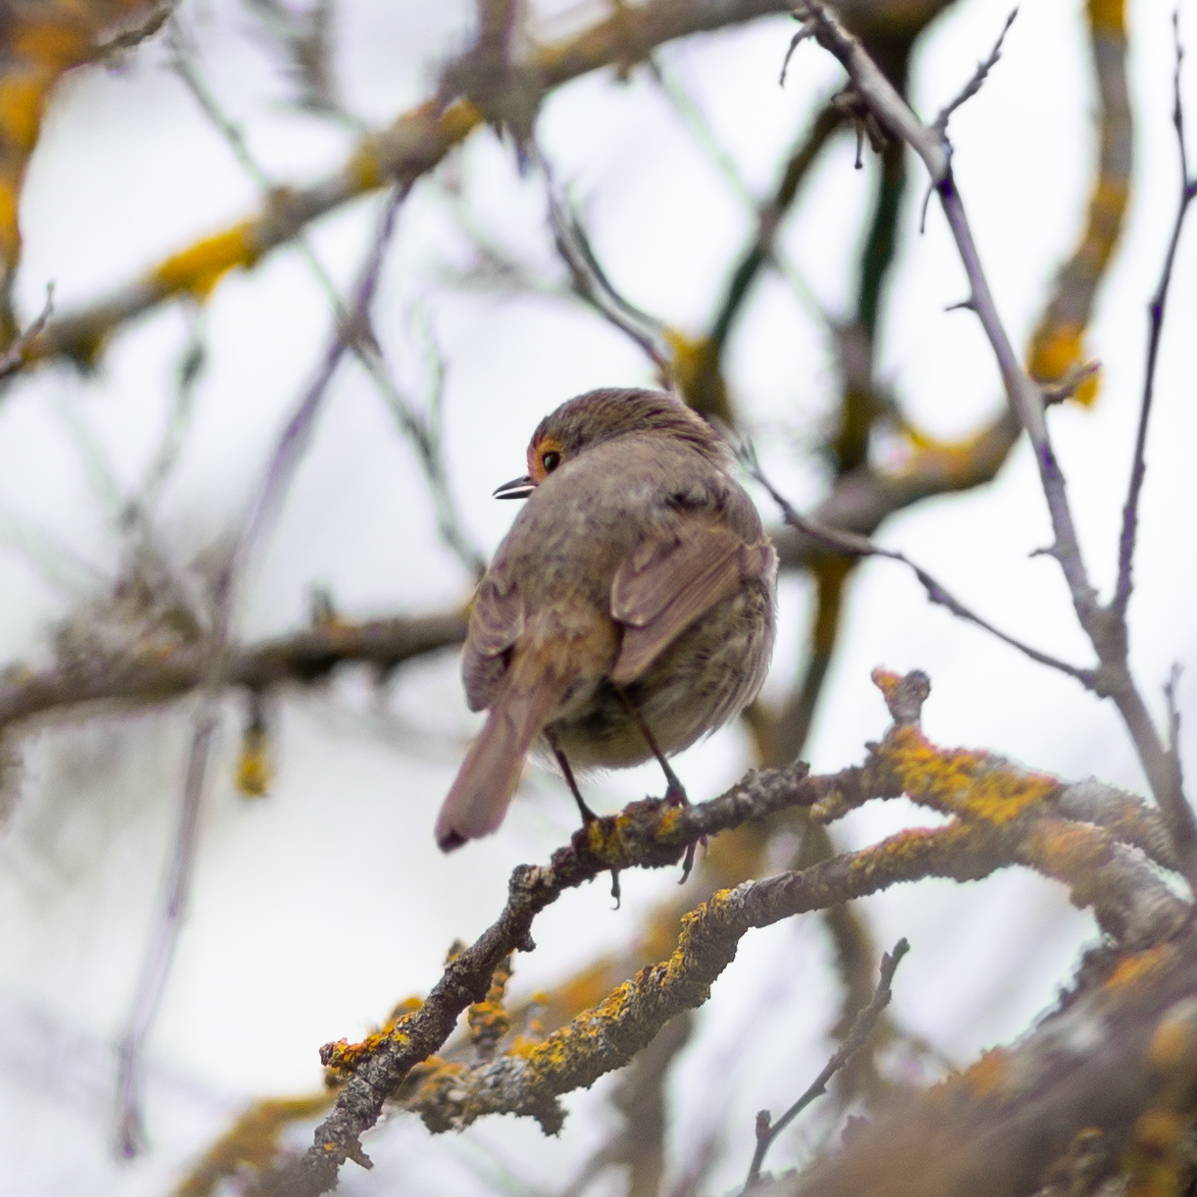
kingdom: Animalia
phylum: Chordata
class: Aves
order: Passeriformes
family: Muscicapidae
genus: Erithacus
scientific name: Erithacus rubecula
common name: European robin
